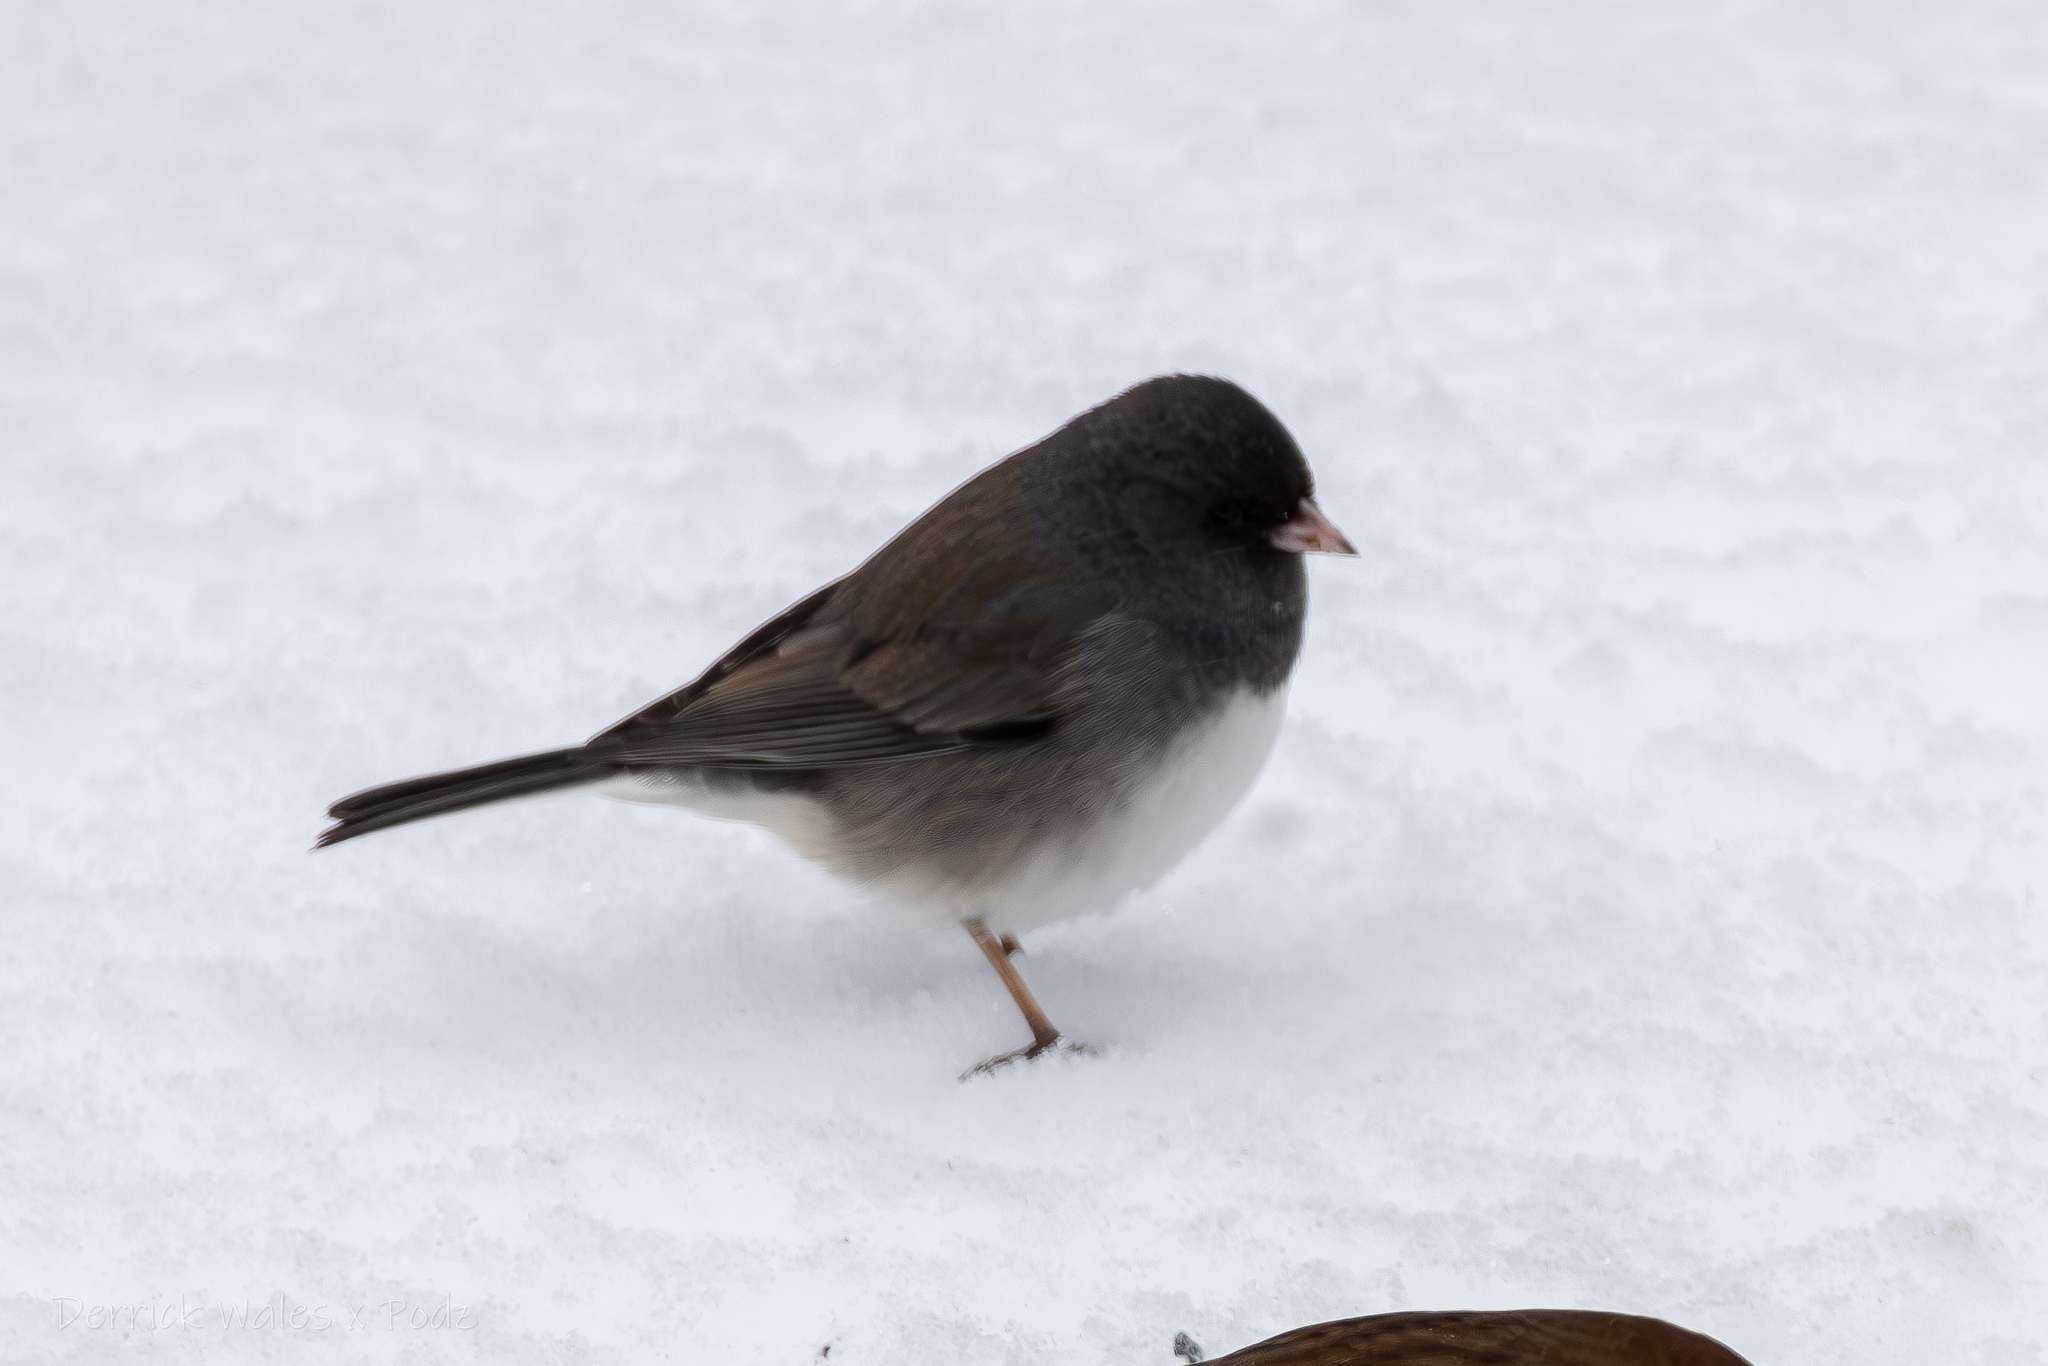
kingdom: Animalia
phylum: Chordata
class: Aves
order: Passeriformes
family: Passerellidae
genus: Junco
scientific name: Junco hyemalis
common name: Dark-eyed junco
